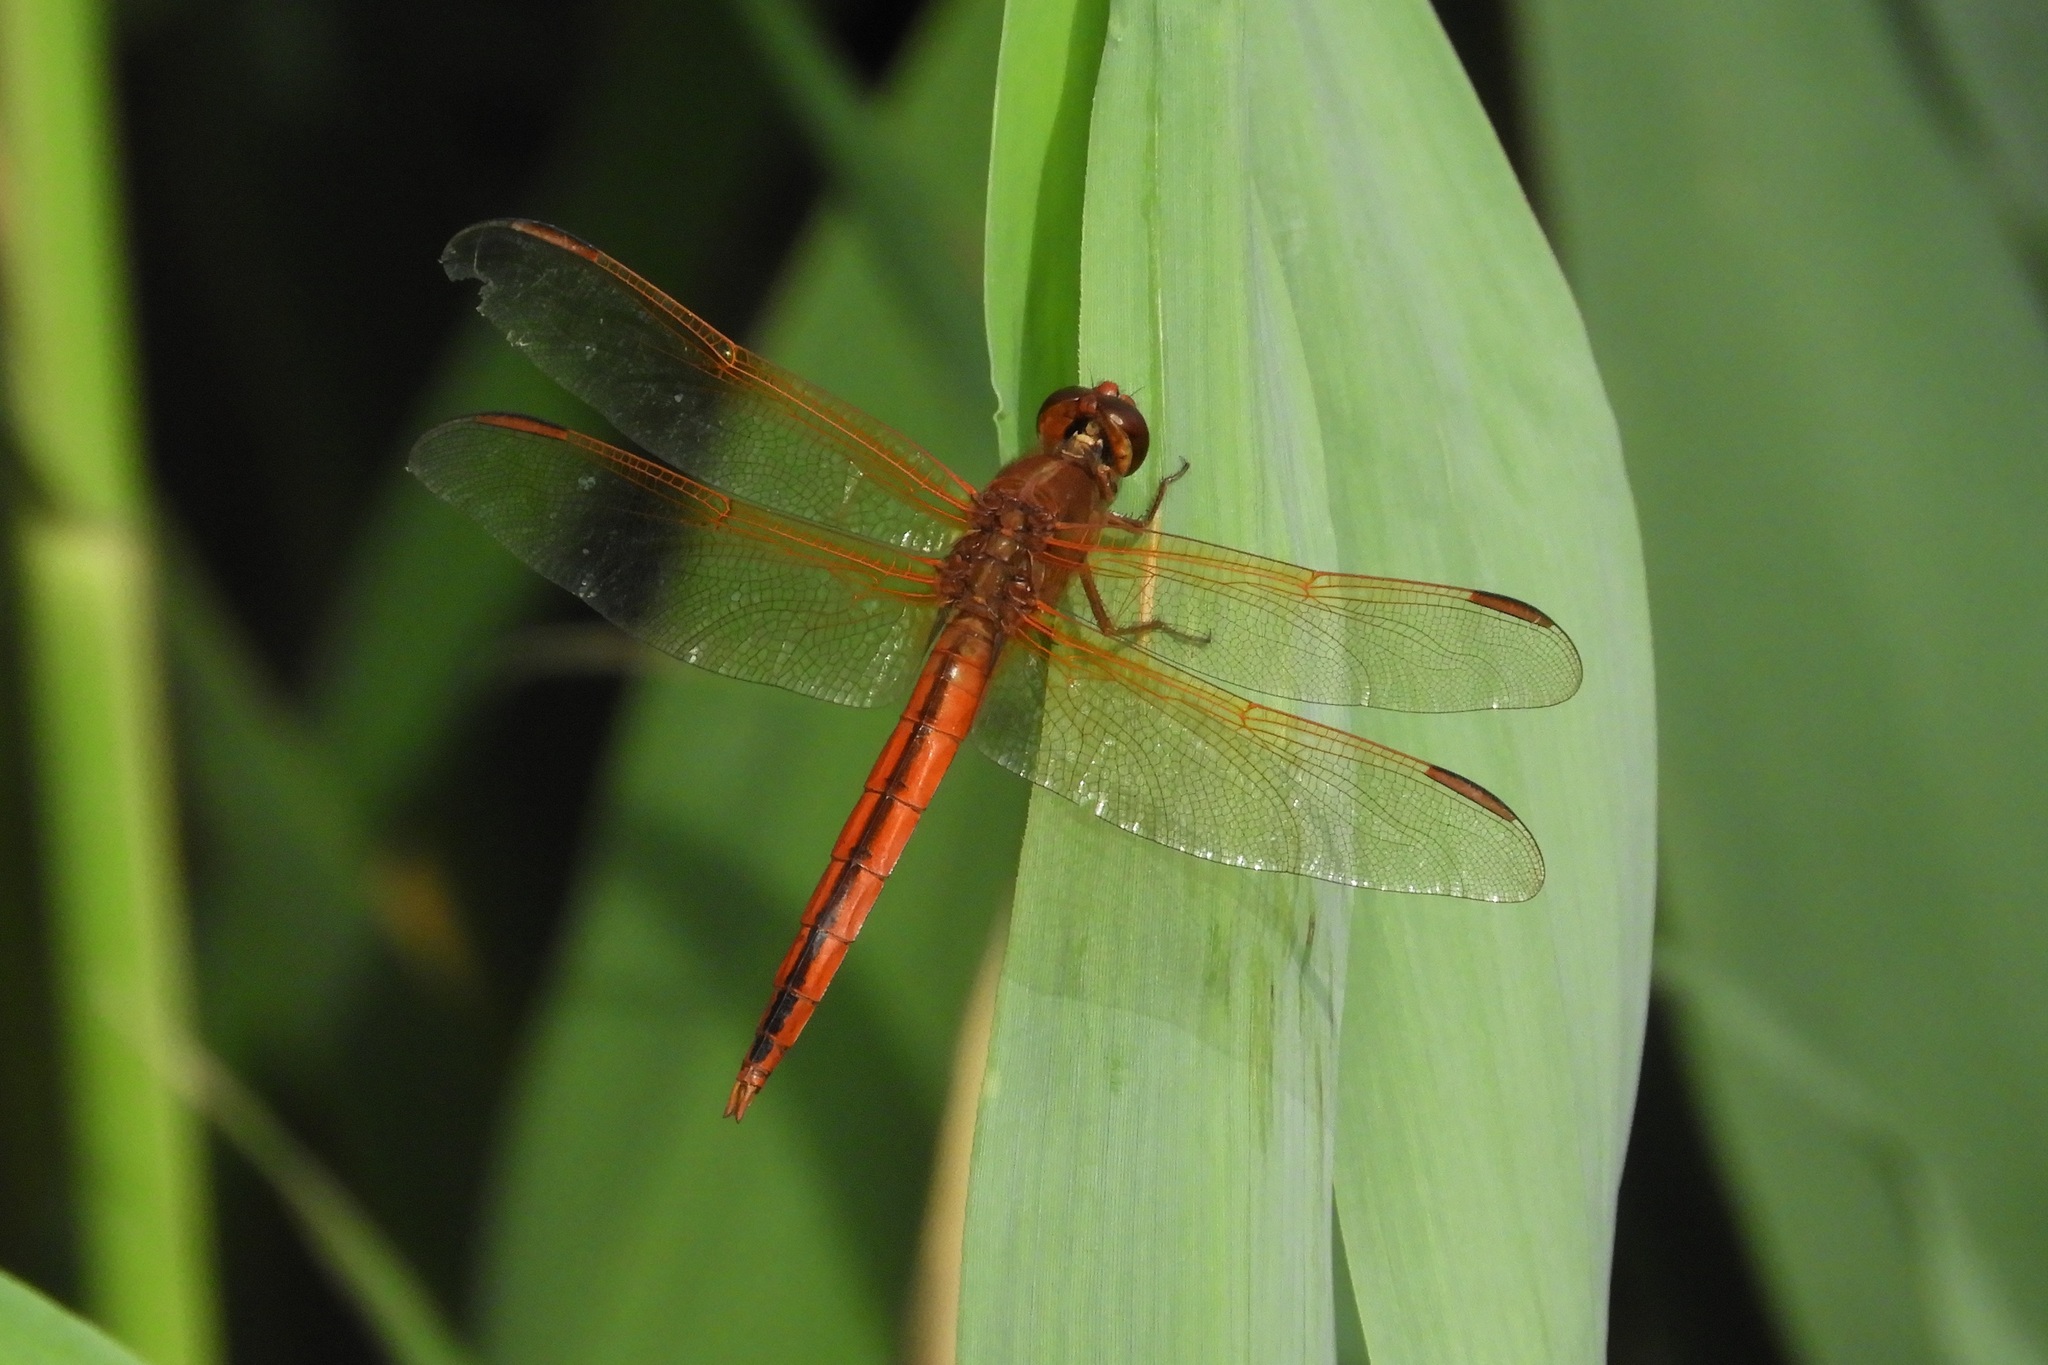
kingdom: Animalia
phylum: Arthropoda
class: Insecta
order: Odonata
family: Libellulidae
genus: Libellula
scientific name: Libellula needhami
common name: Needham's skimmer
